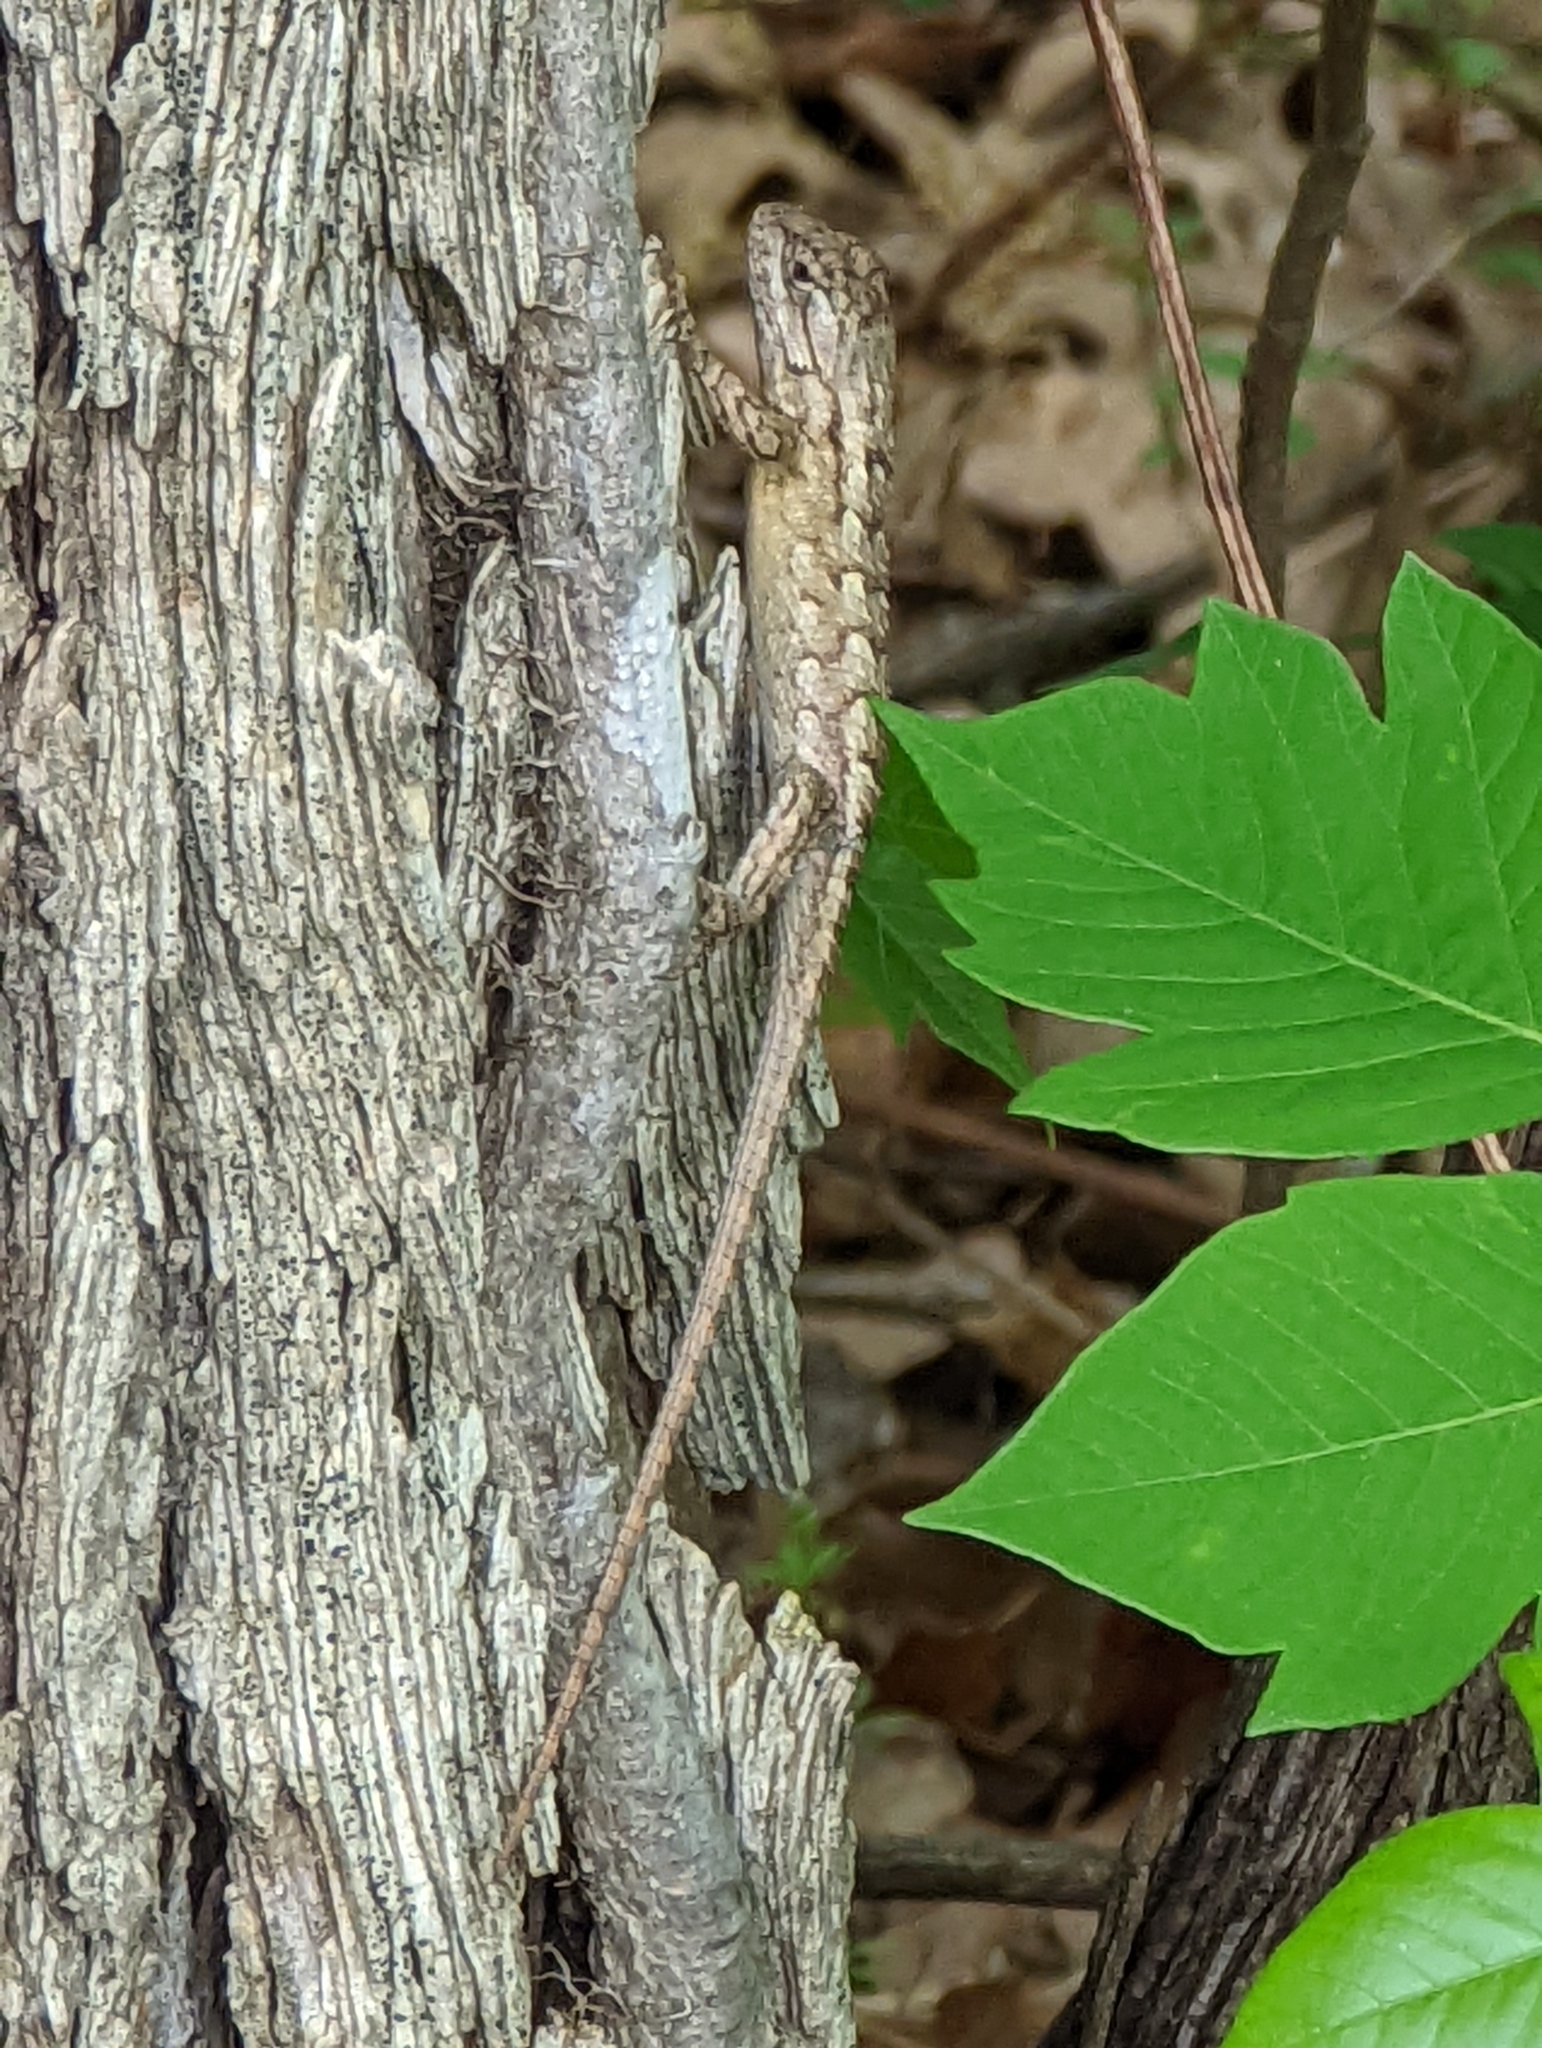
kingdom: Animalia
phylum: Chordata
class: Squamata
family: Phrynosomatidae
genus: Sceloporus
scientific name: Sceloporus olivaceus
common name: Texas spiny lizard
